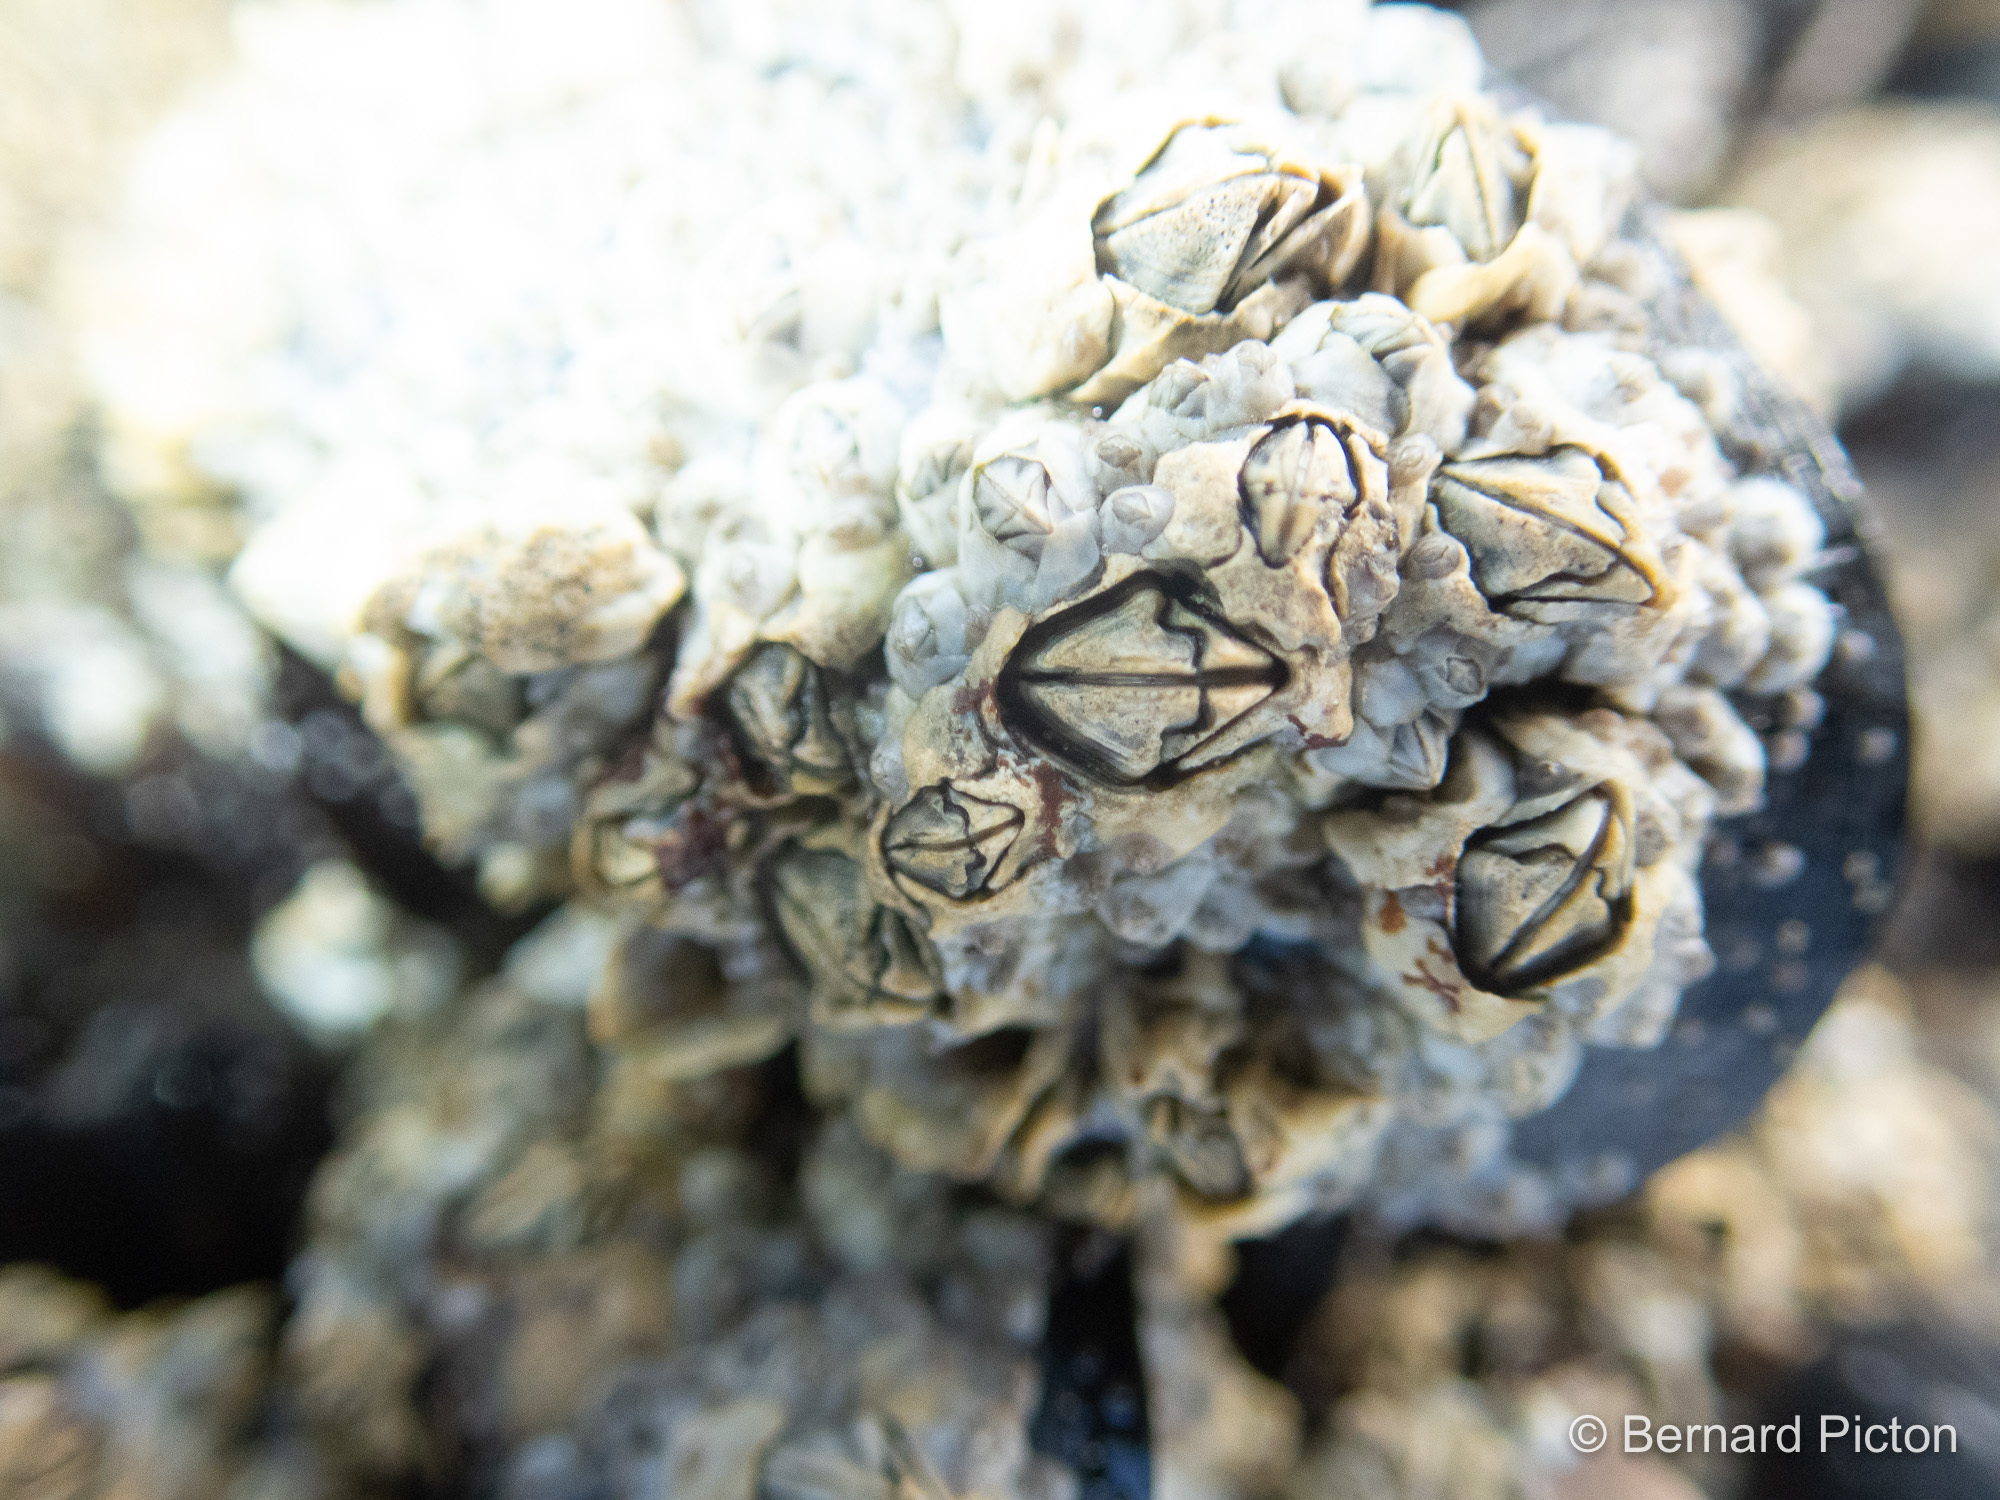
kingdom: Animalia
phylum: Arthropoda
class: Maxillopoda
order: Sessilia
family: Archaeobalanidae
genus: Semibalanus
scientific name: Semibalanus balanoides
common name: Acorn barnacle
